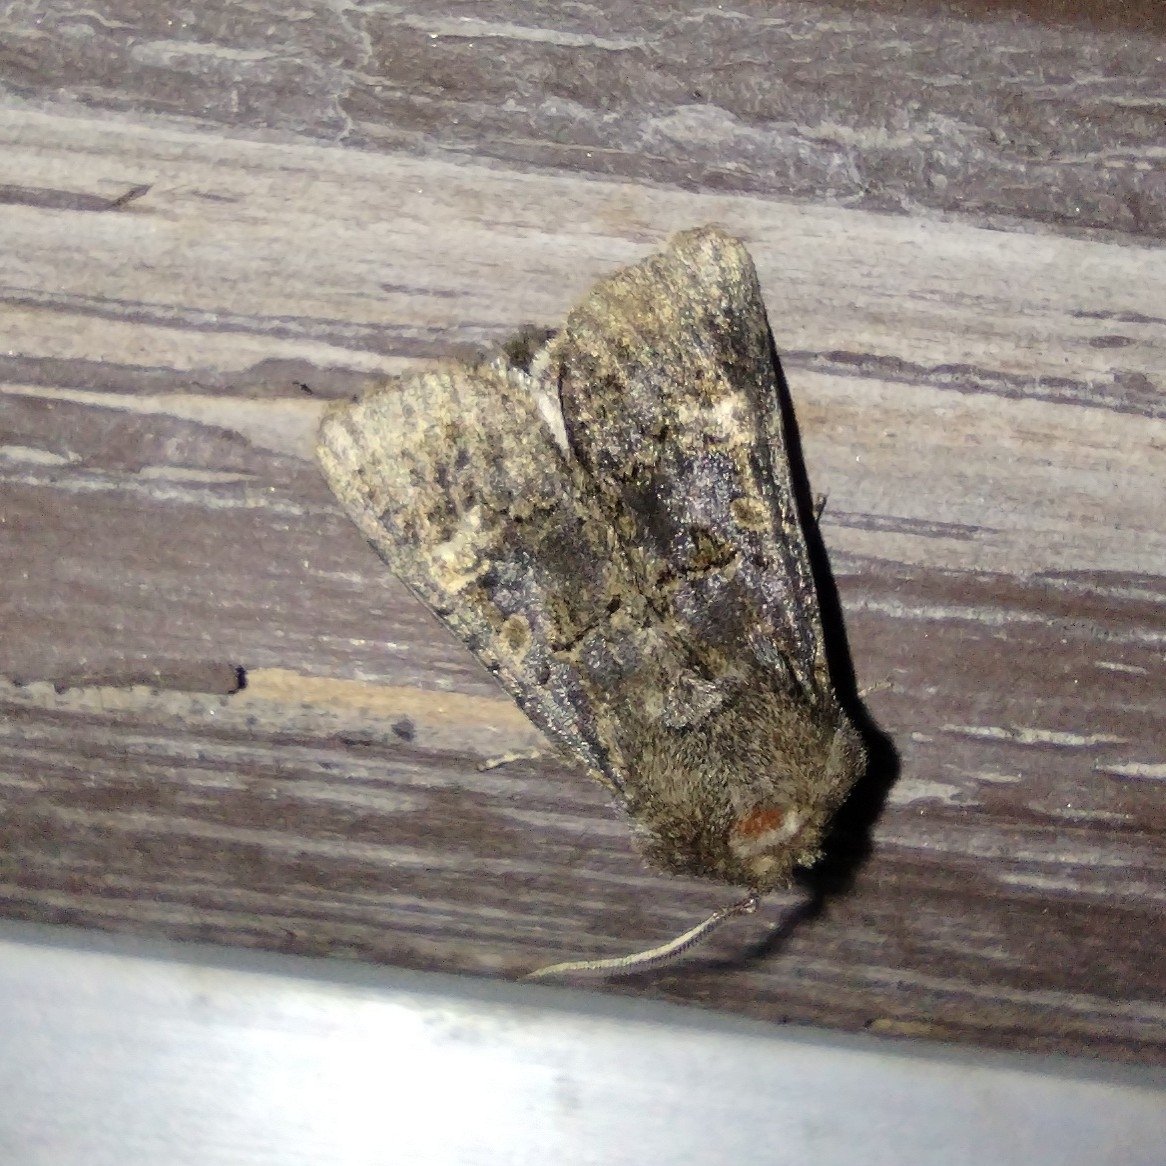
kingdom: Animalia
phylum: Arthropoda
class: Insecta
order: Lepidoptera
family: Noctuidae
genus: Tholera
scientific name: Tholera cespitis
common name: Hedge rustic
